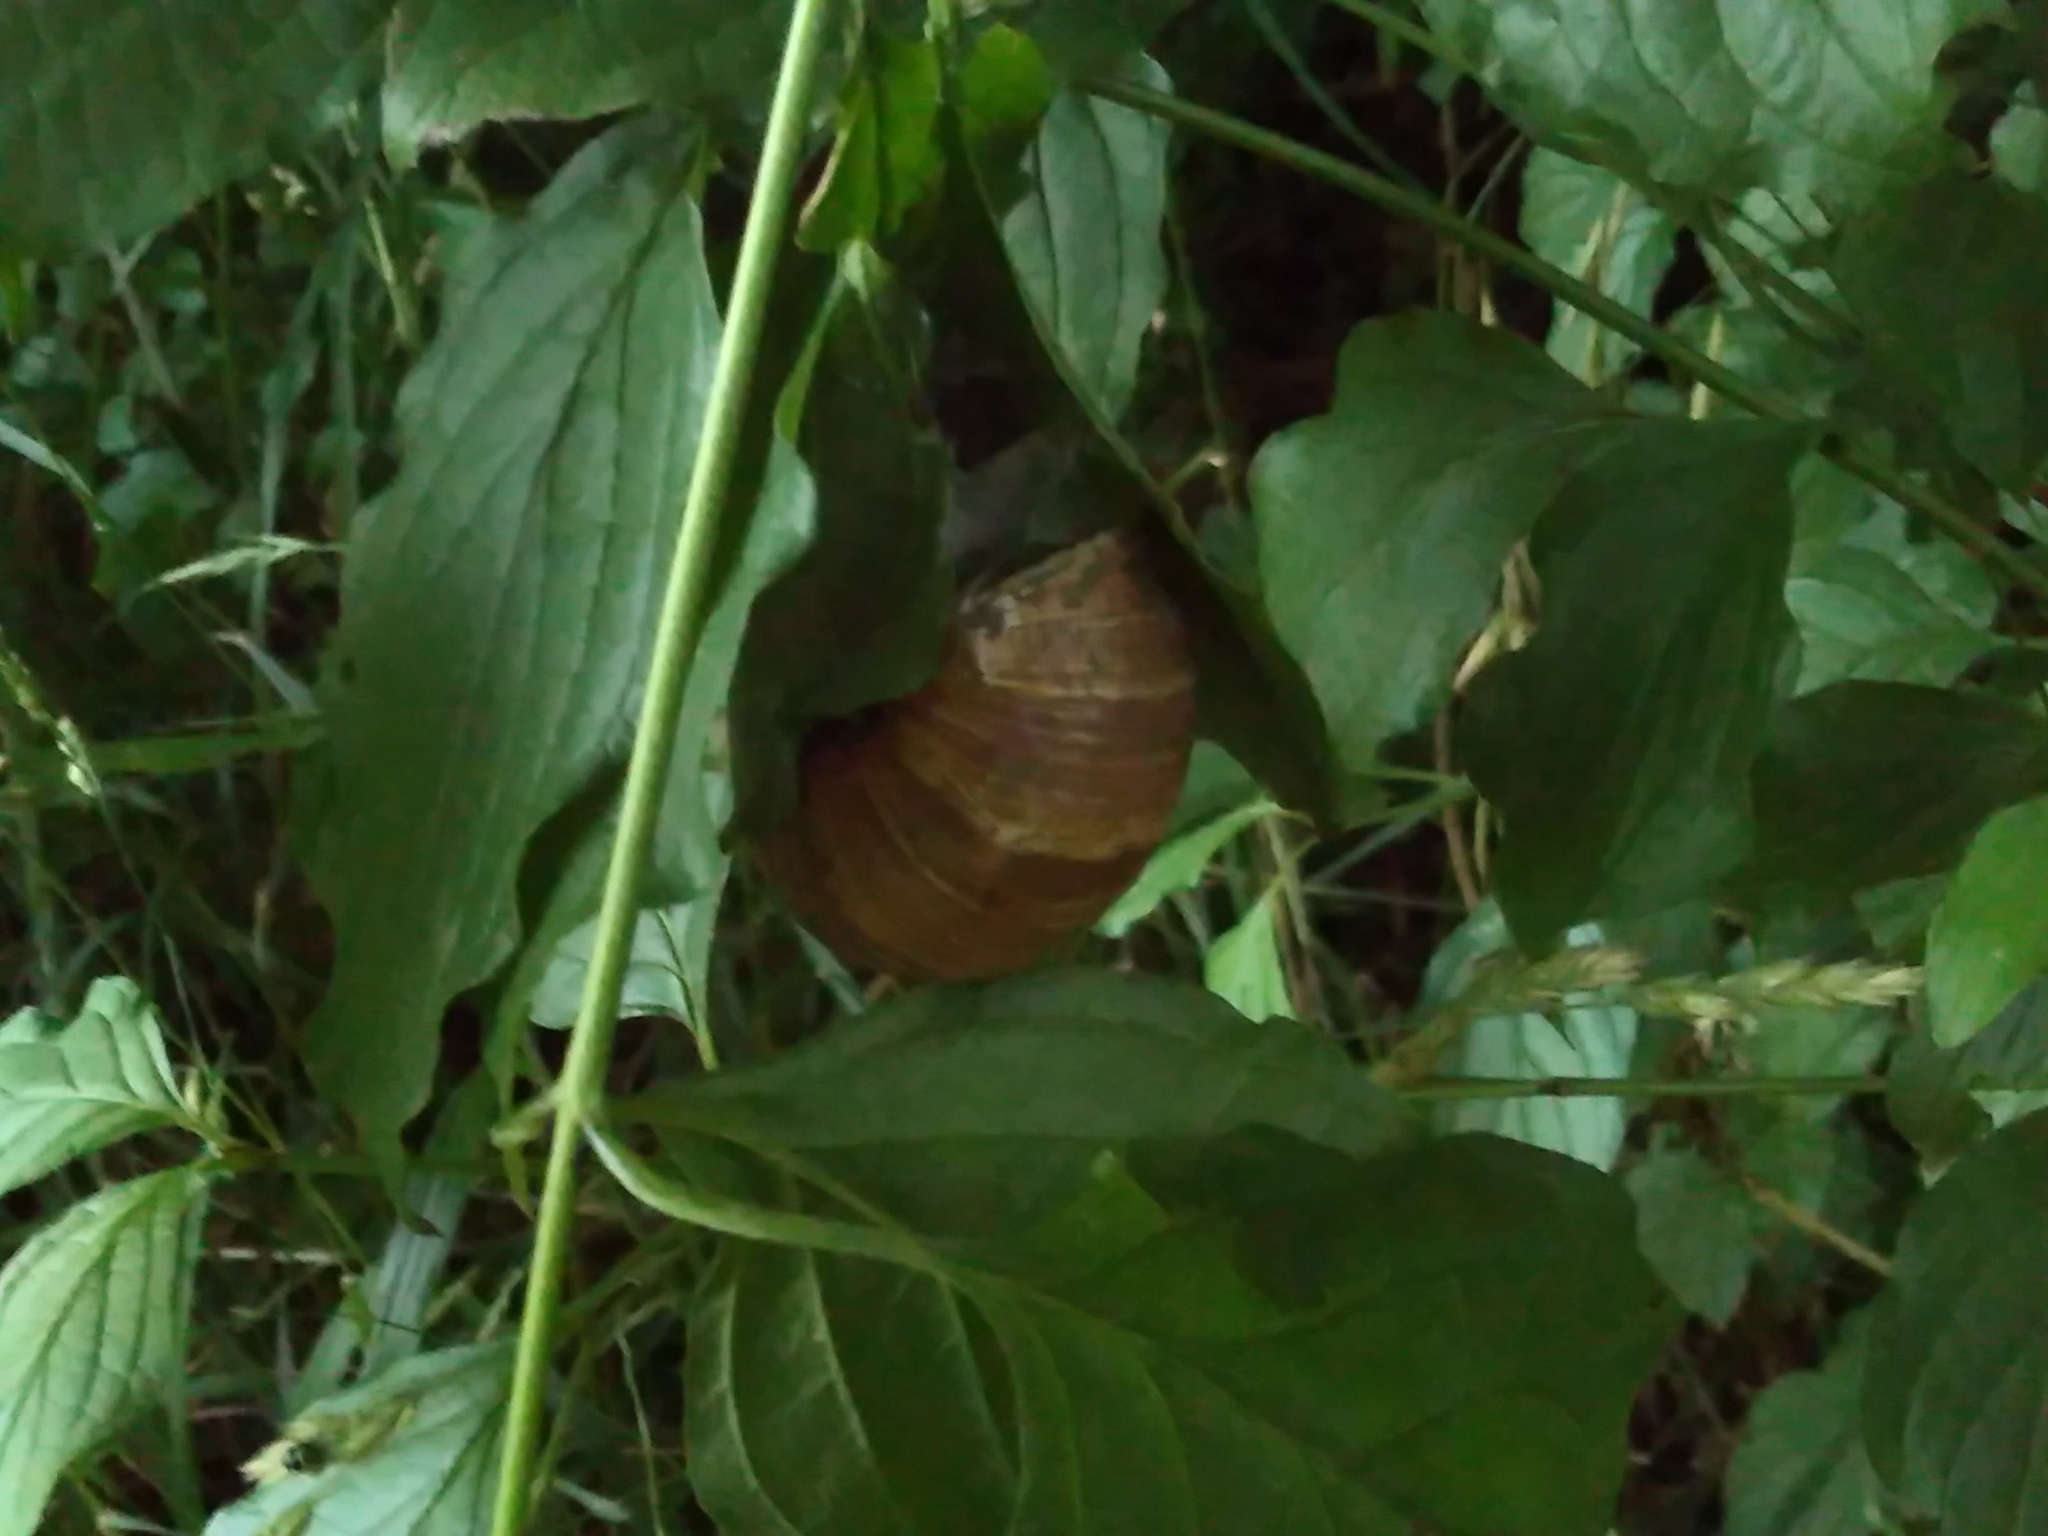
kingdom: Animalia
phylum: Mollusca
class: Gastropoda
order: Stylommatophora
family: Helicidae
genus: Helix
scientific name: Helix pomatia
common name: Roman snail
